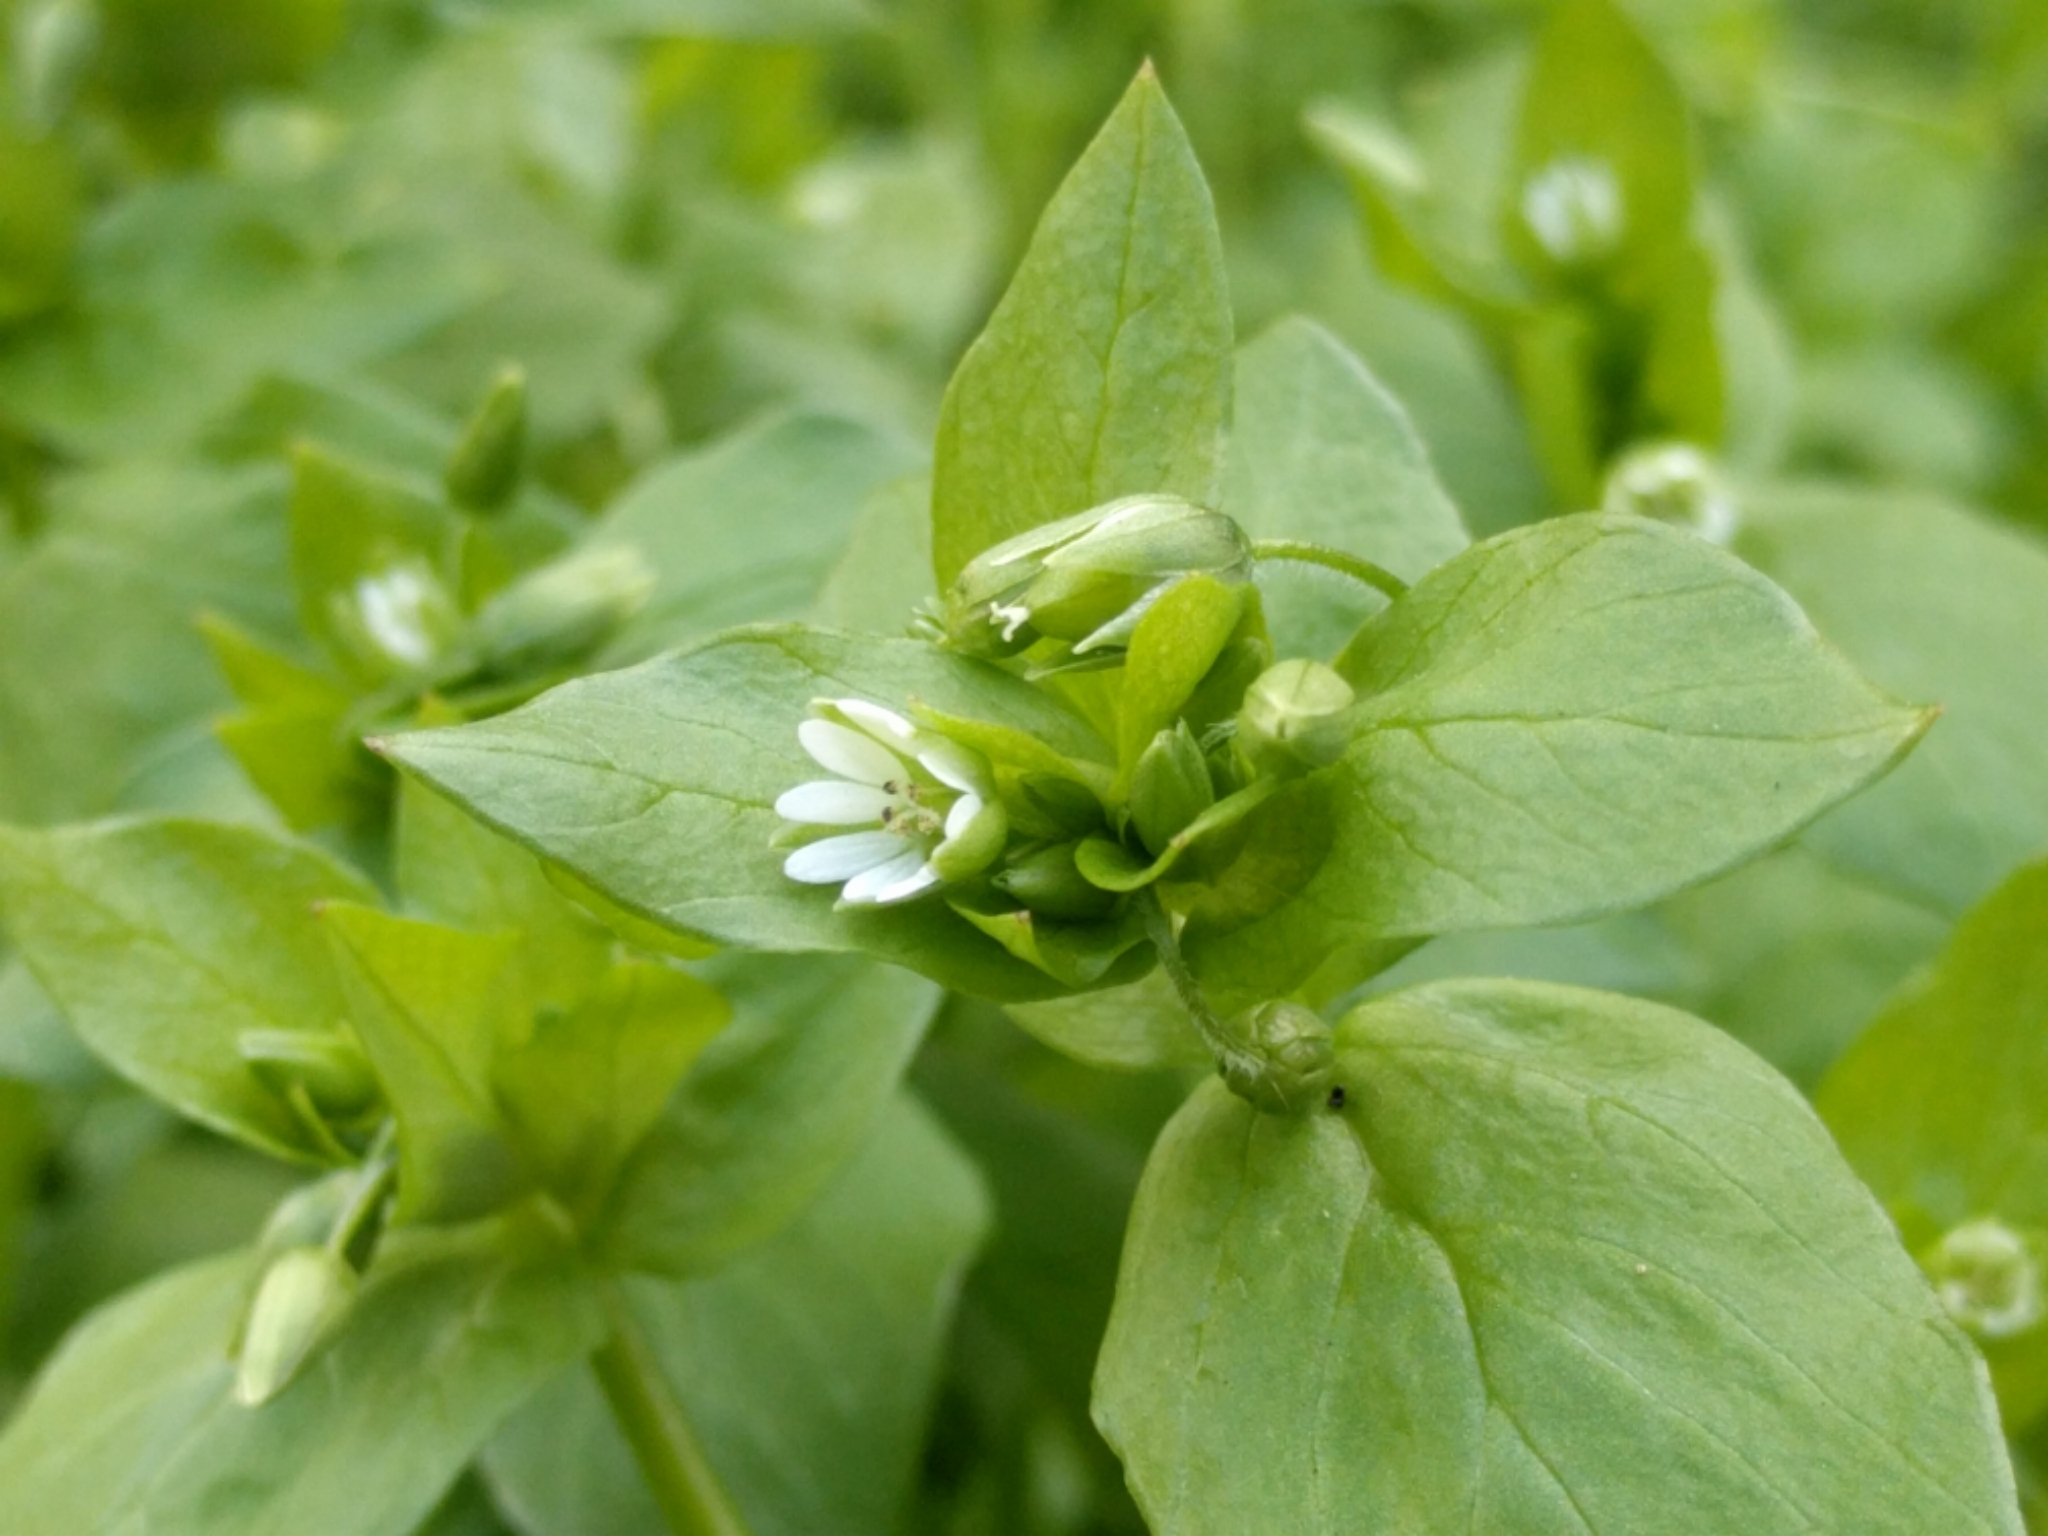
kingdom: Plantae
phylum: Tracheophyta
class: Magnoliopsida
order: Caryophyllales
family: Caryophyllaceae
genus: Stellaria
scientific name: Stellaria media
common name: Common chickweed
